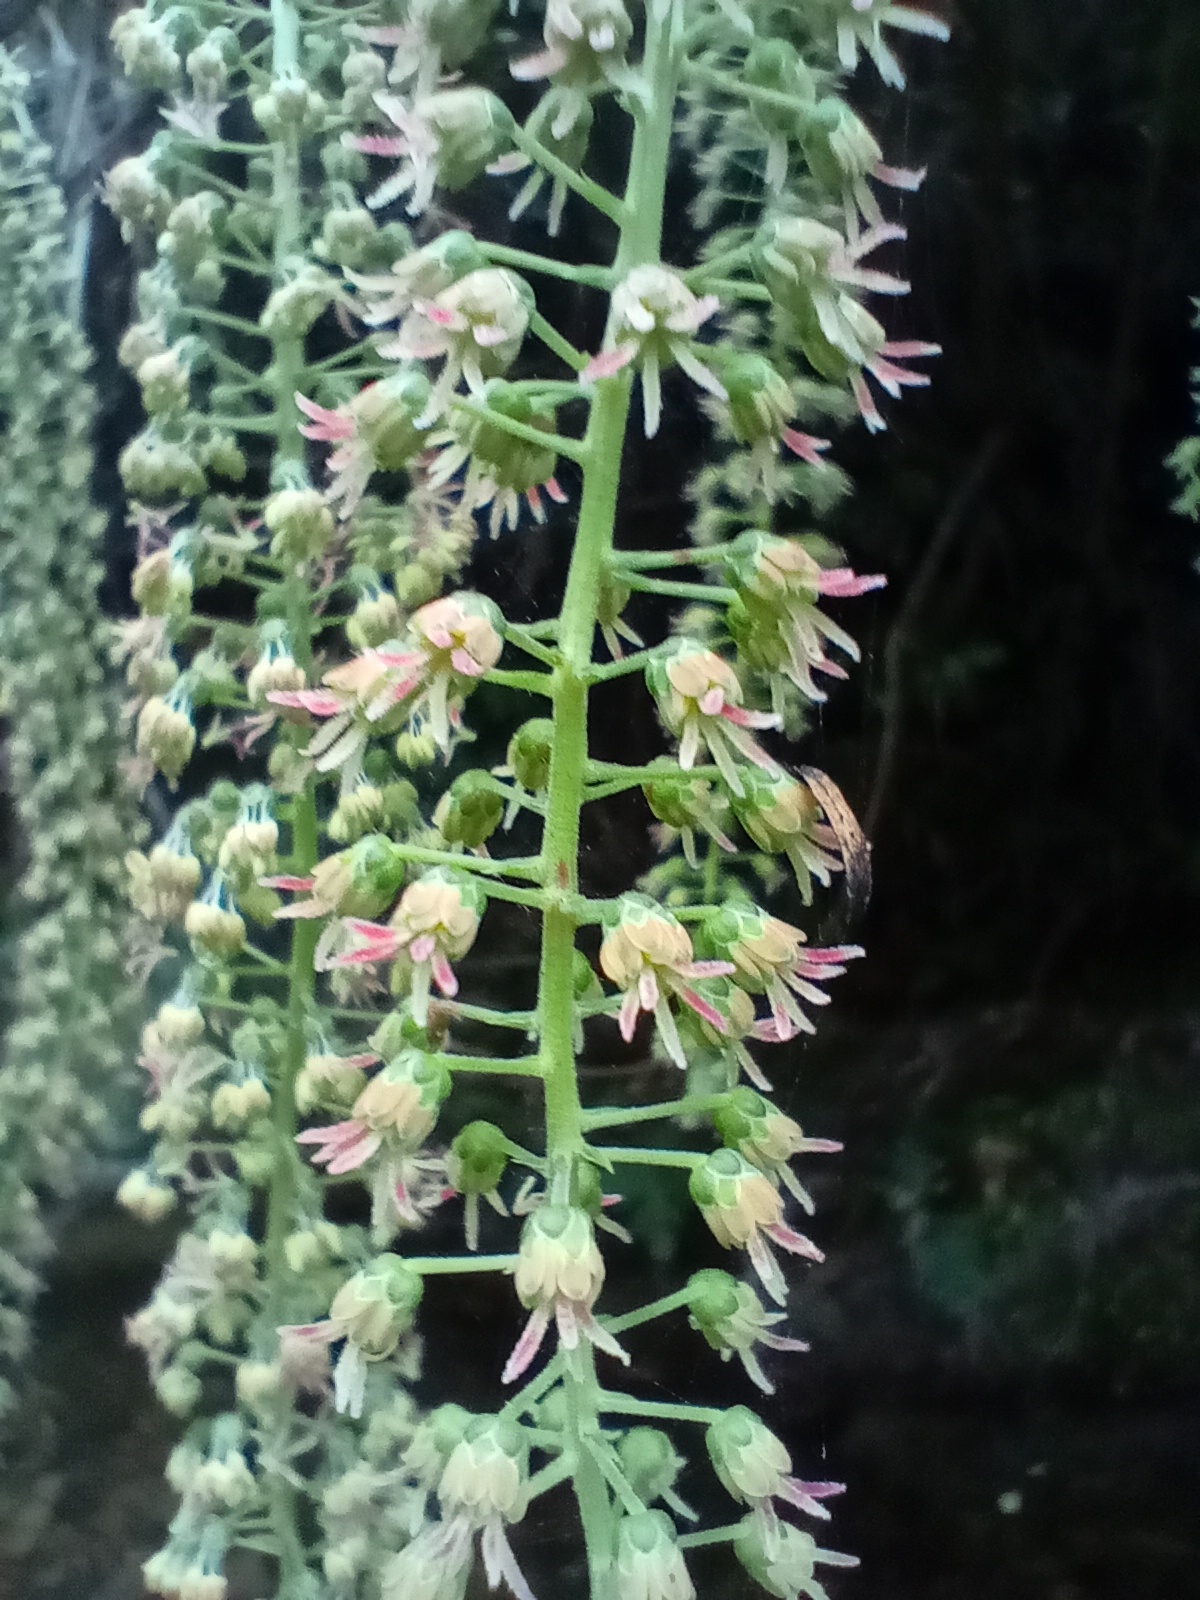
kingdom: Plantae
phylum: Tracheophyta
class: Magnoliopsida
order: Cucurbitales
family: Coriariaceae
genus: Coriaria
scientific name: Coriaria arborea
